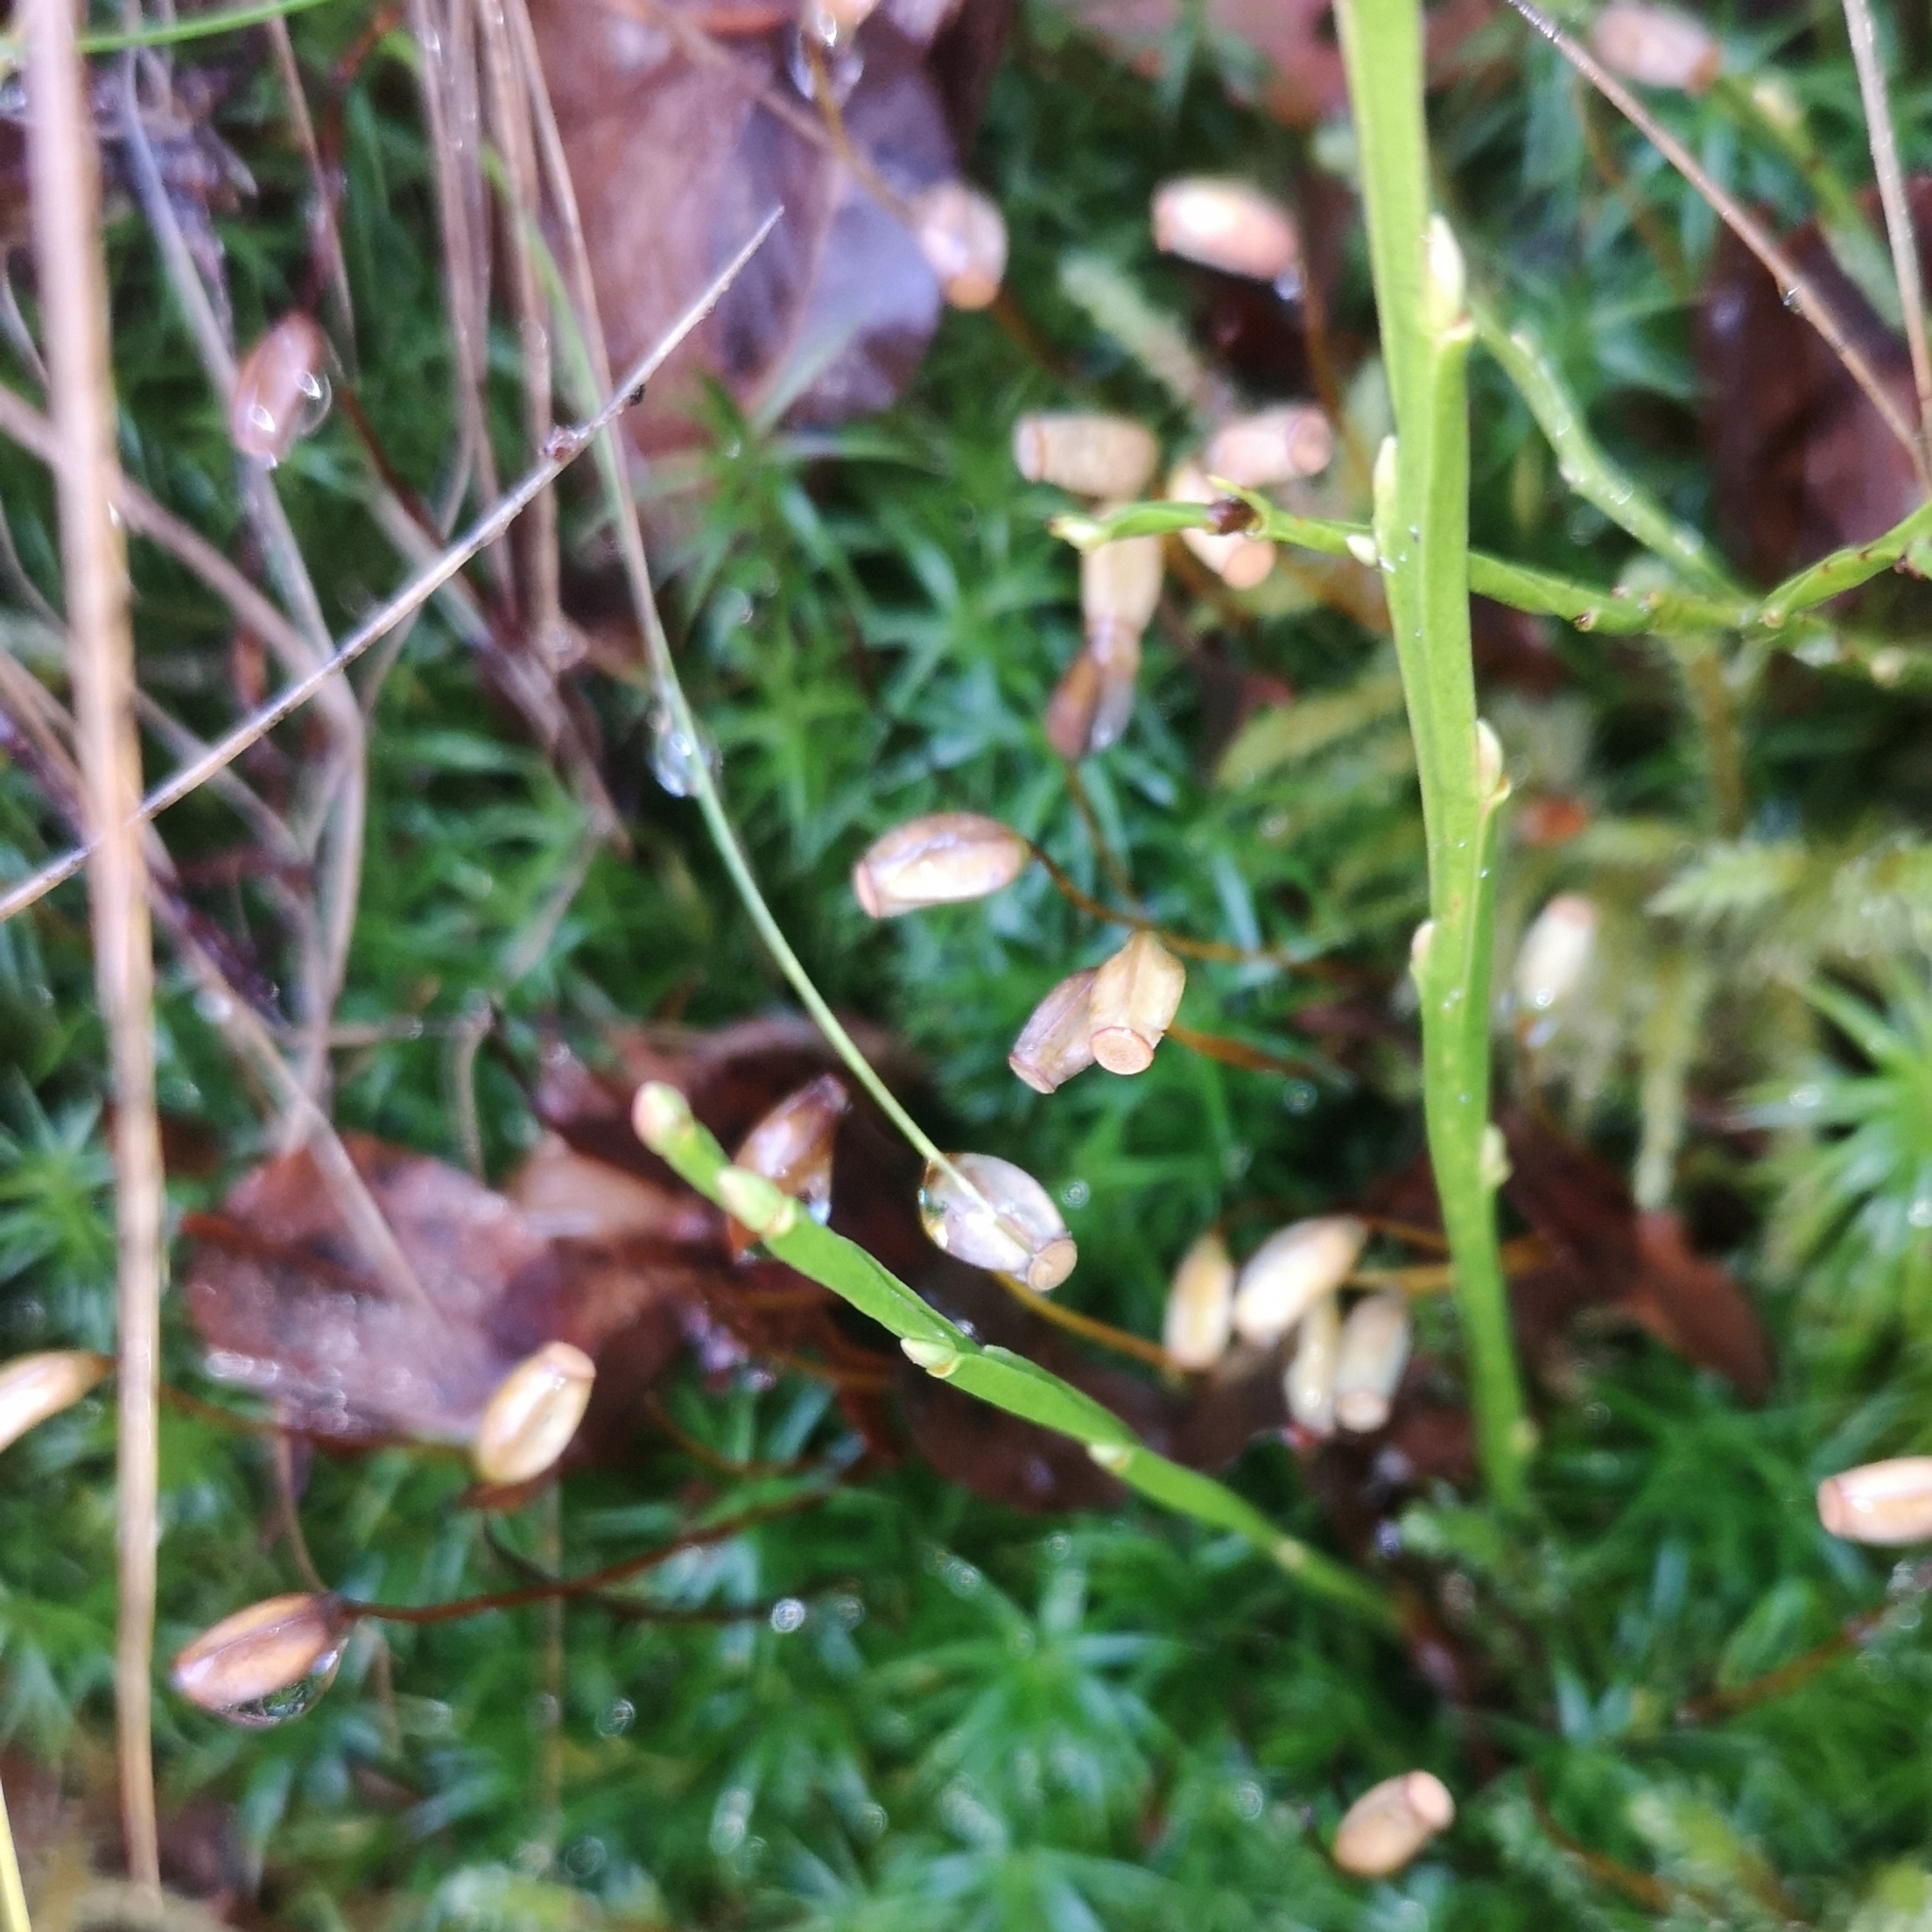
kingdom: Plantae
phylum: Bryophyta
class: Polytrichopsida
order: Polytrichales
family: Polytrichaceae
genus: Polytrichum
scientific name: Polytrichum formosum
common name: Bank haircap moss
